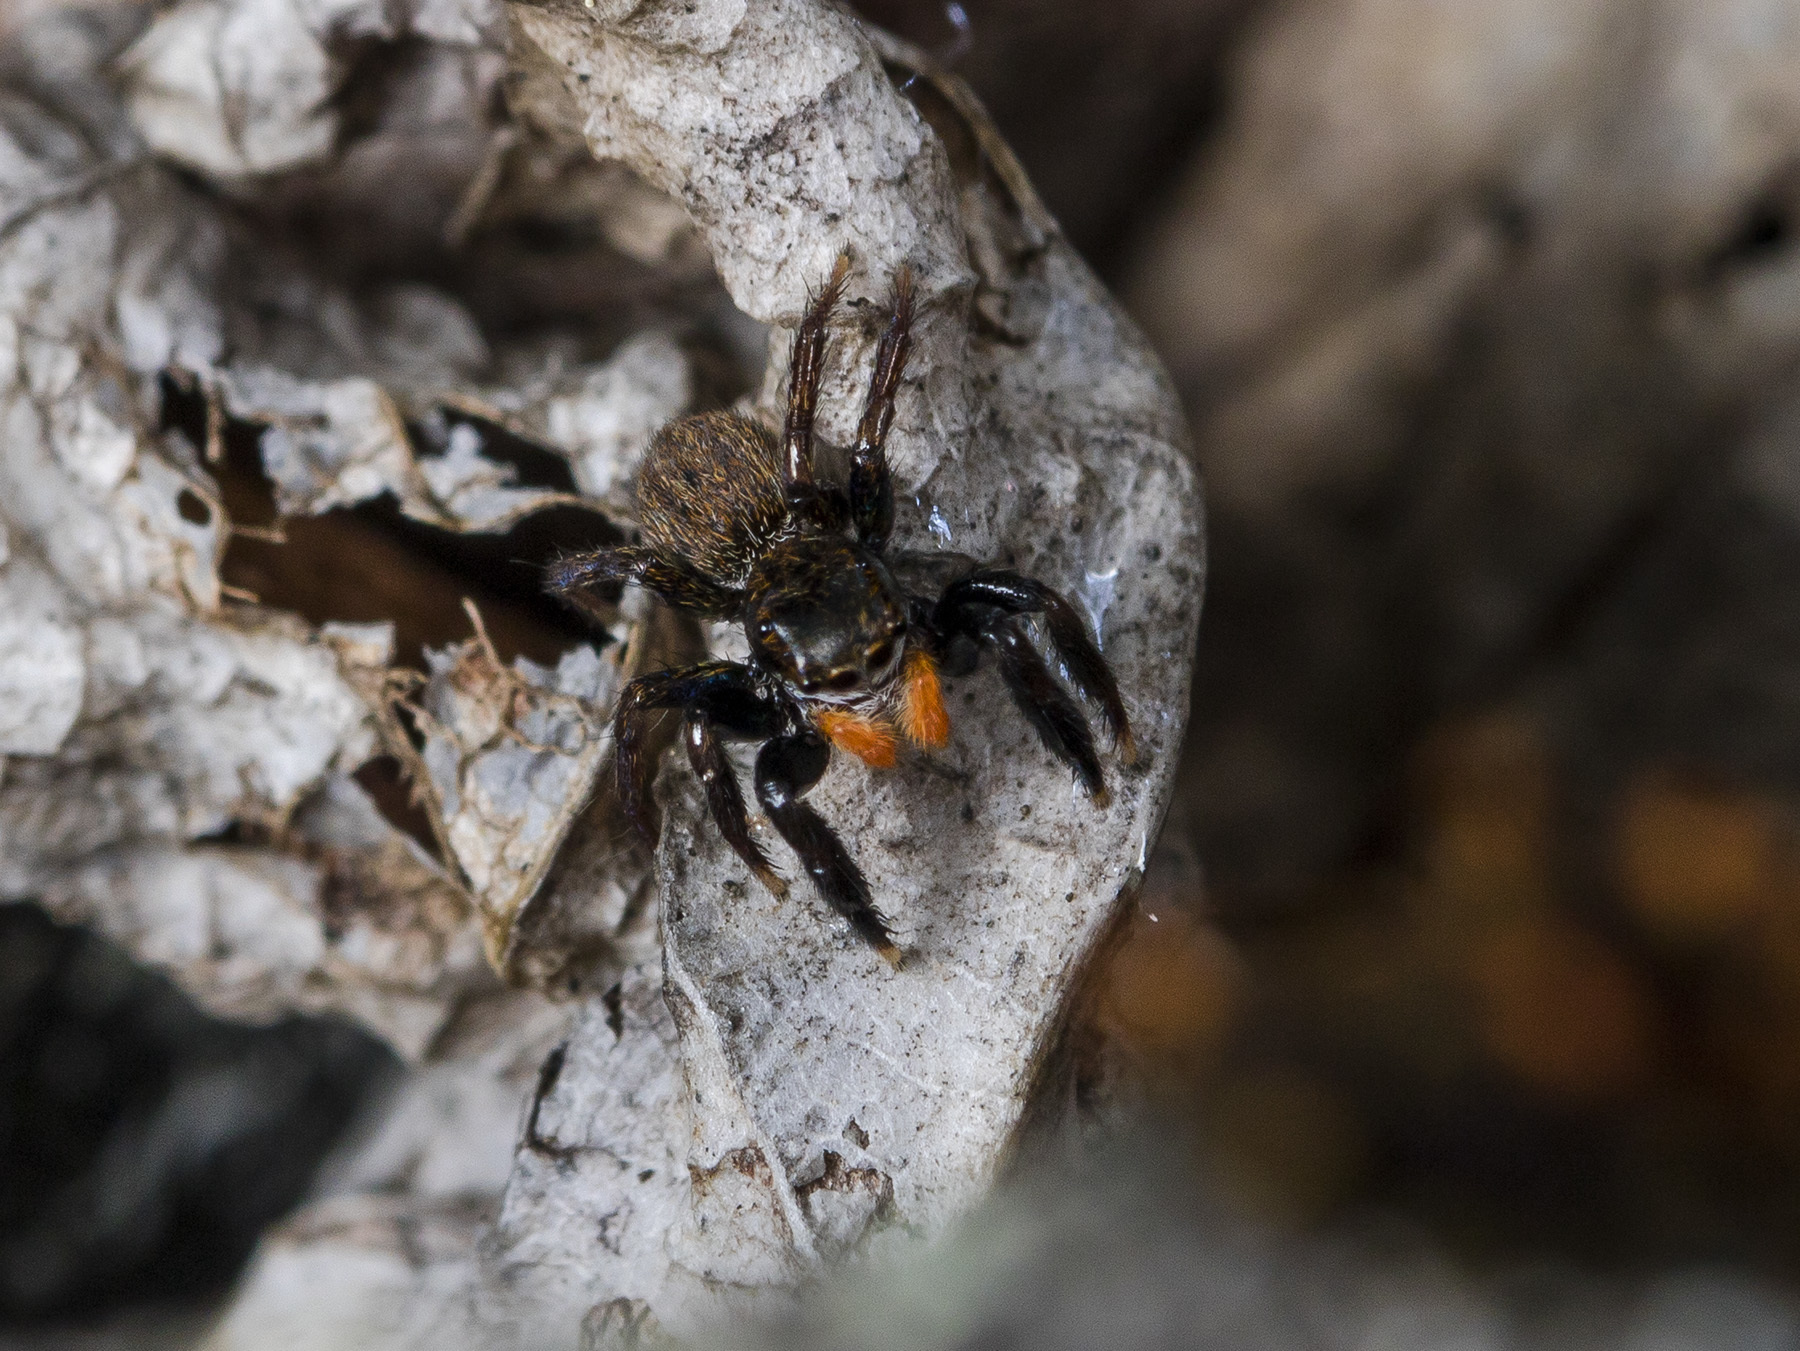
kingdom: Animalia
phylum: Arthropoda
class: Arachnida
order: Araneae
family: Salticidae
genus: Euophrys
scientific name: Euophrys uralensis
